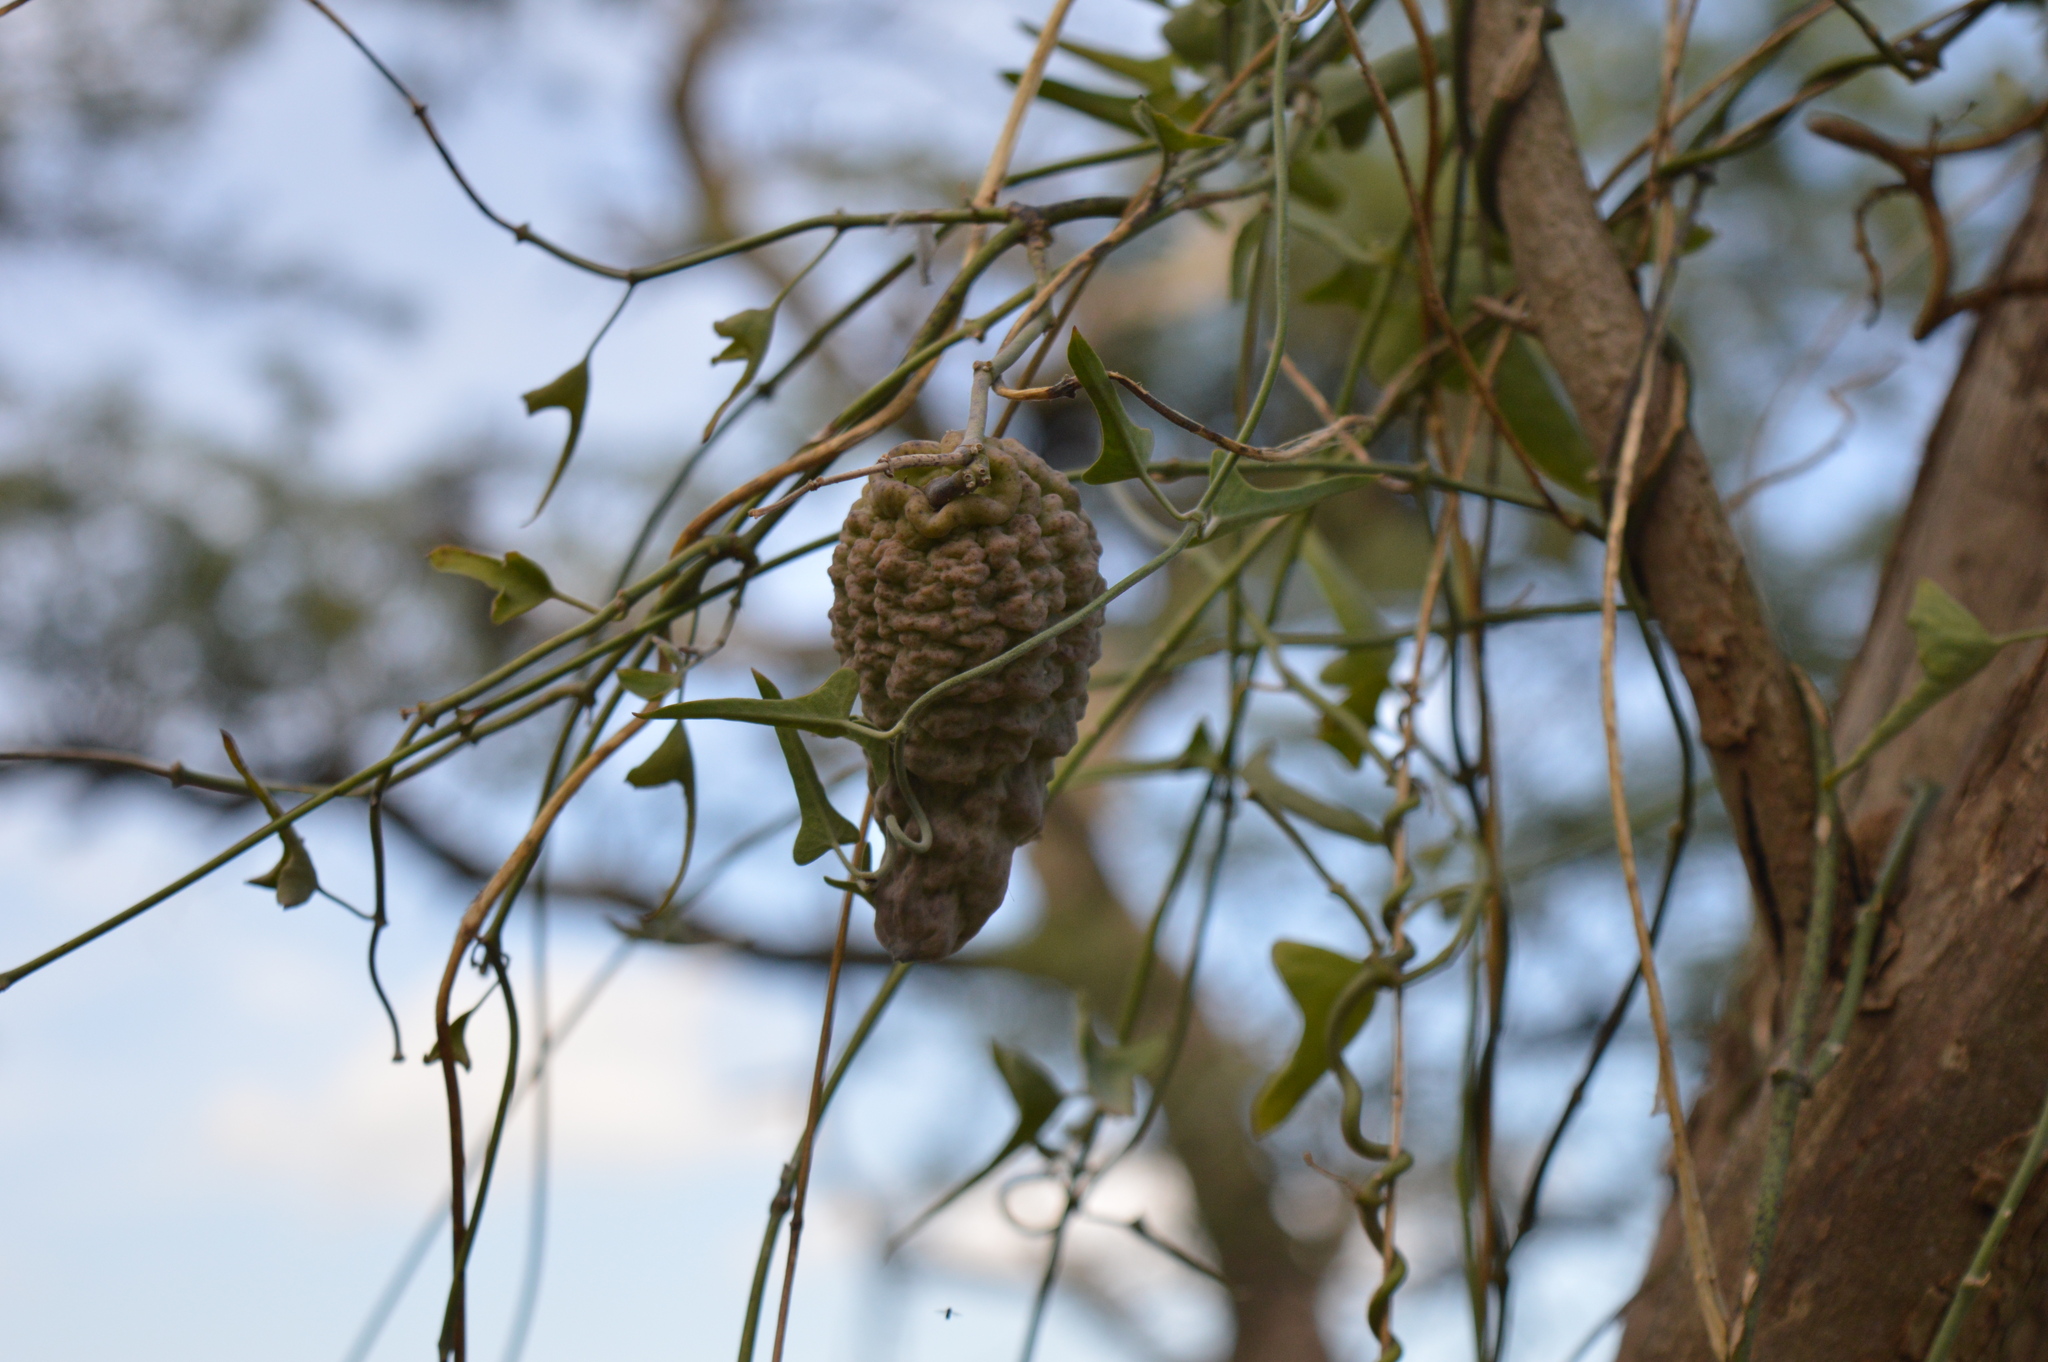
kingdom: Plantae
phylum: Tracheophyta
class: Magnoliopsida
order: Gentianales
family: Apocynaceae
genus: Araujia
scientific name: Araujia brachystephana
